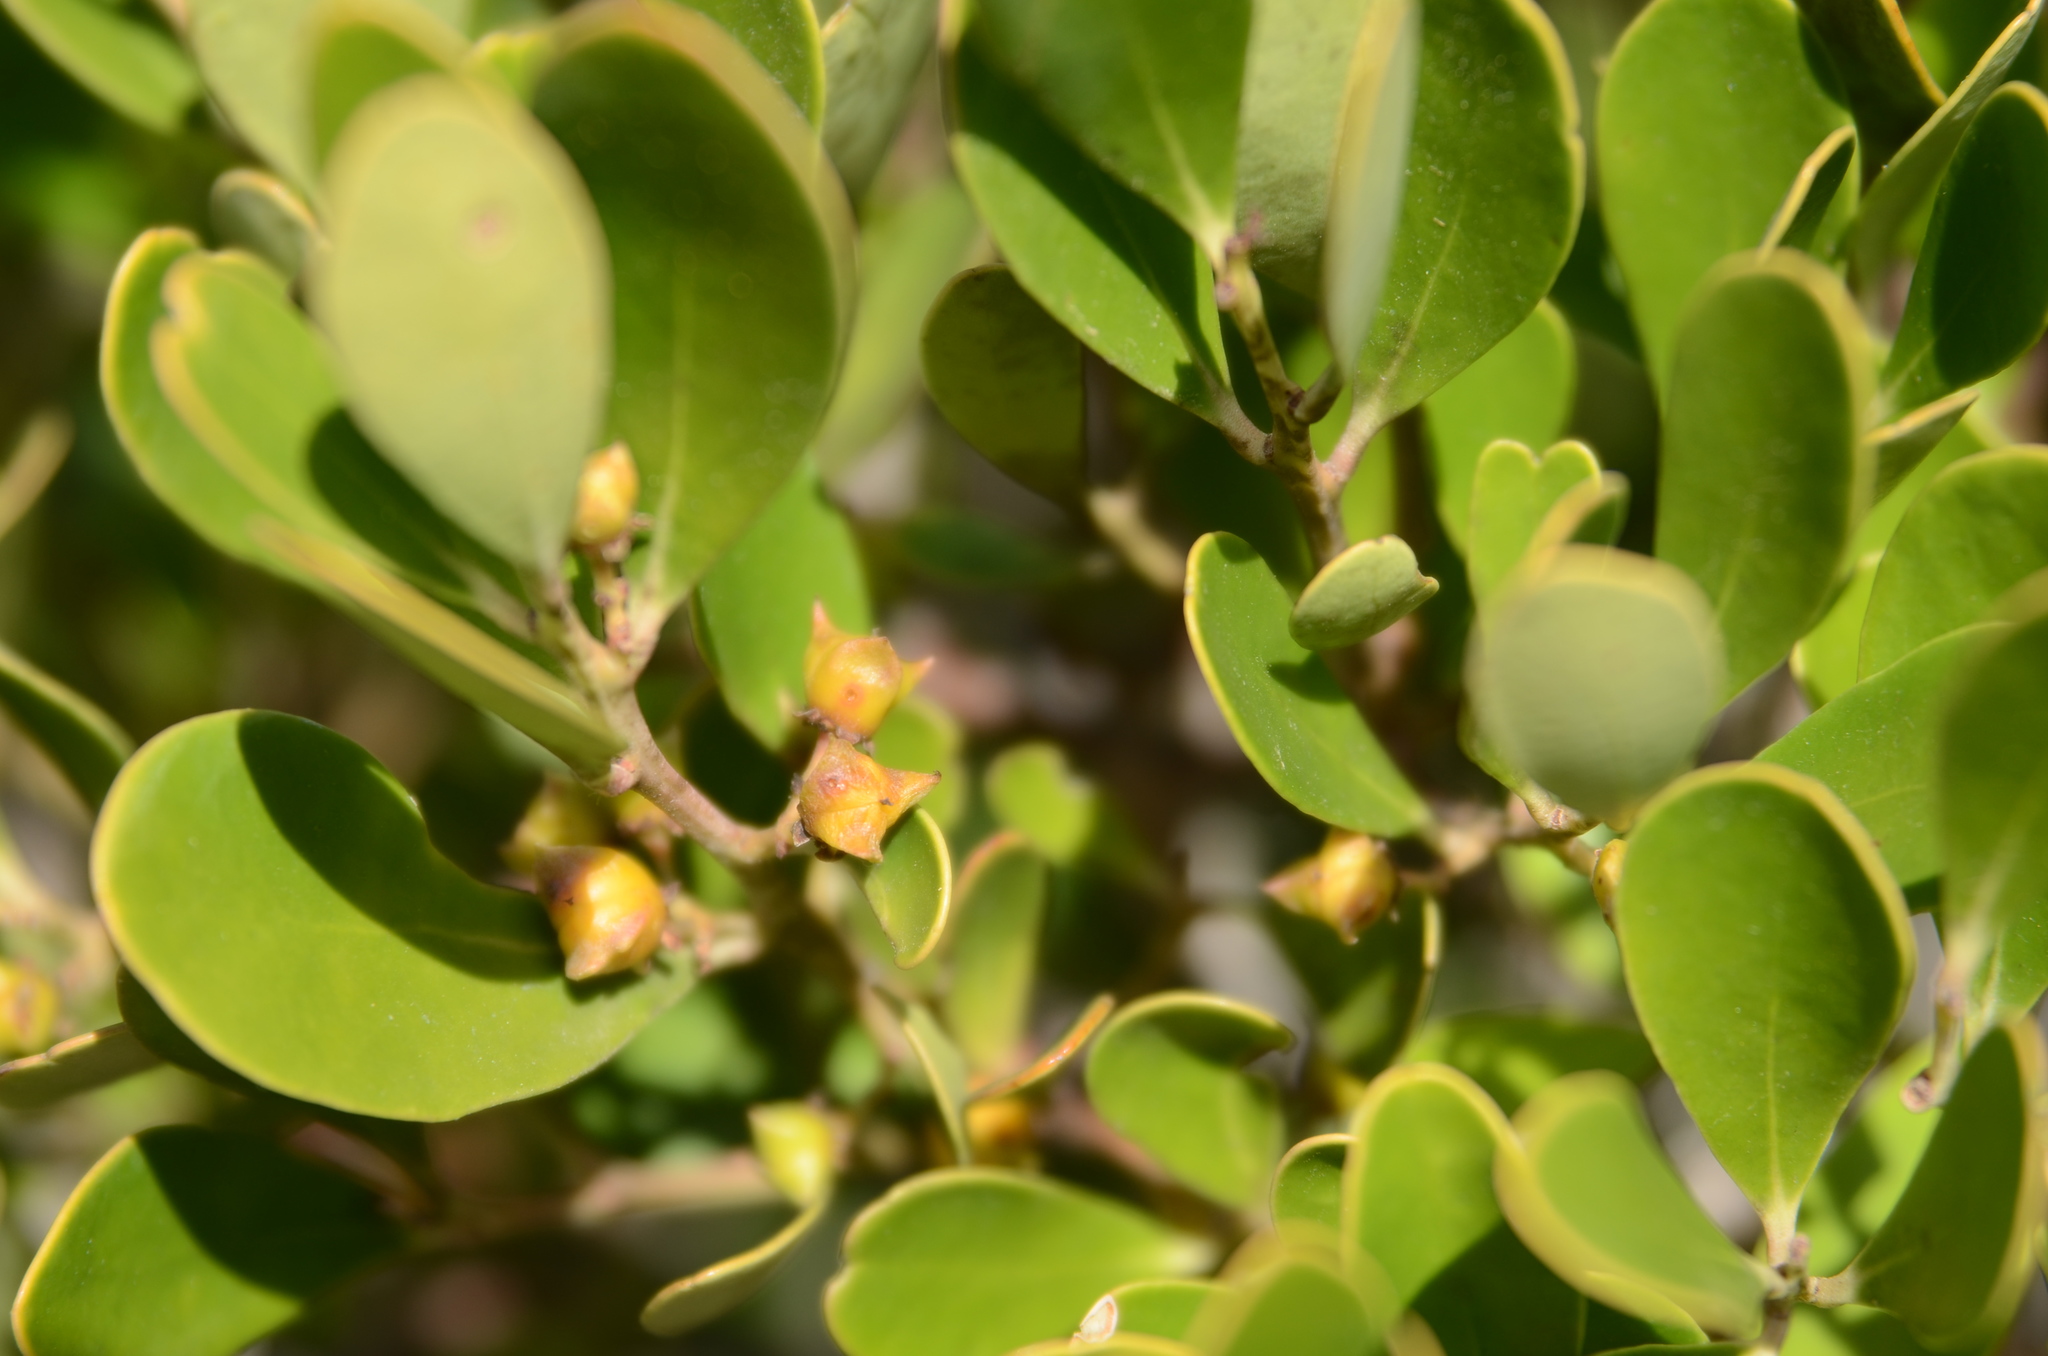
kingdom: Plantae
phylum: Tracheophyta
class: Magnoliopsida
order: Celastrales
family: Celastraceae
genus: Pterocelastrus
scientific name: Pterocelastrus tricuspidatus
